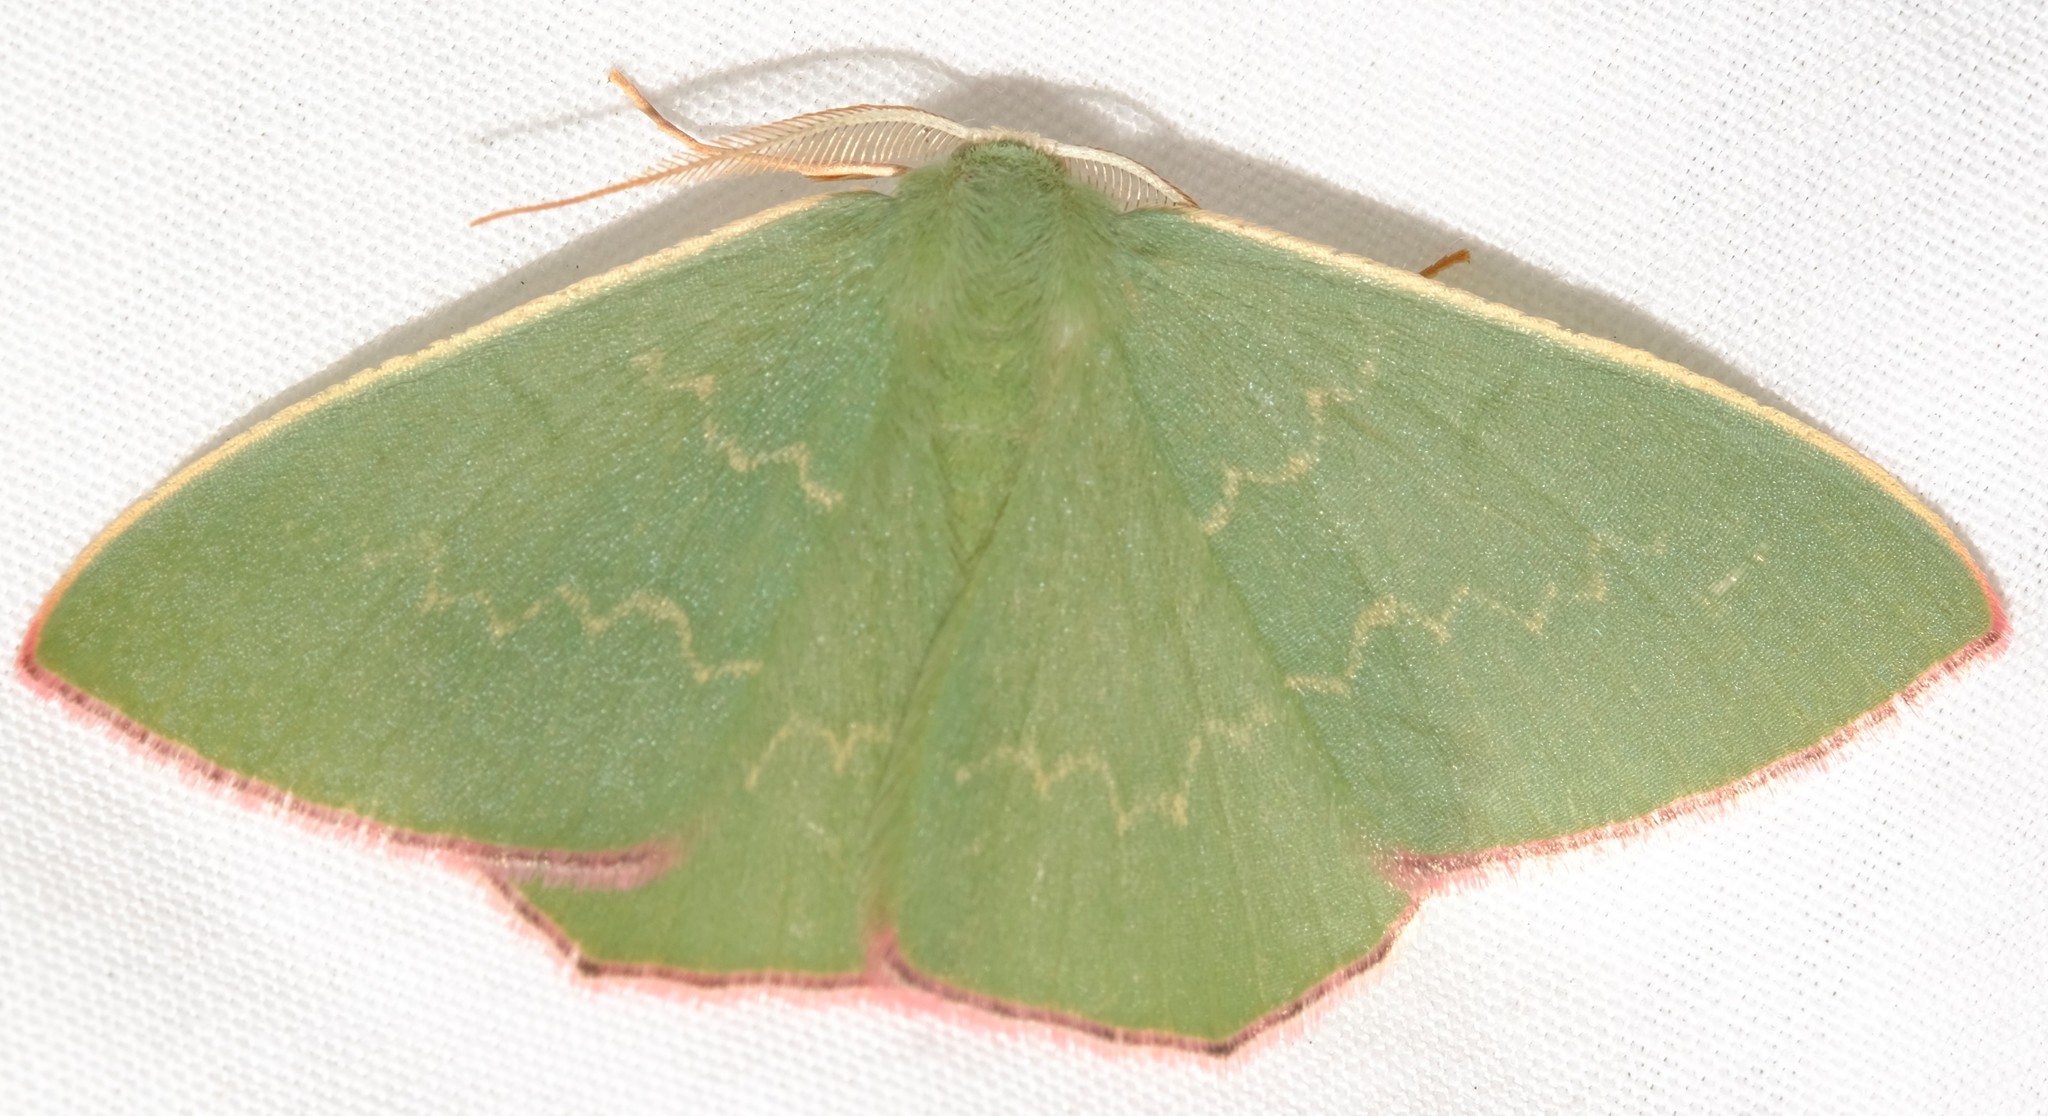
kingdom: Animalia
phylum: Arthropoda
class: Insecta
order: Lepidoptera
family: Geometridae
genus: Chlorocoma
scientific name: Chlorocoma dichloraria
